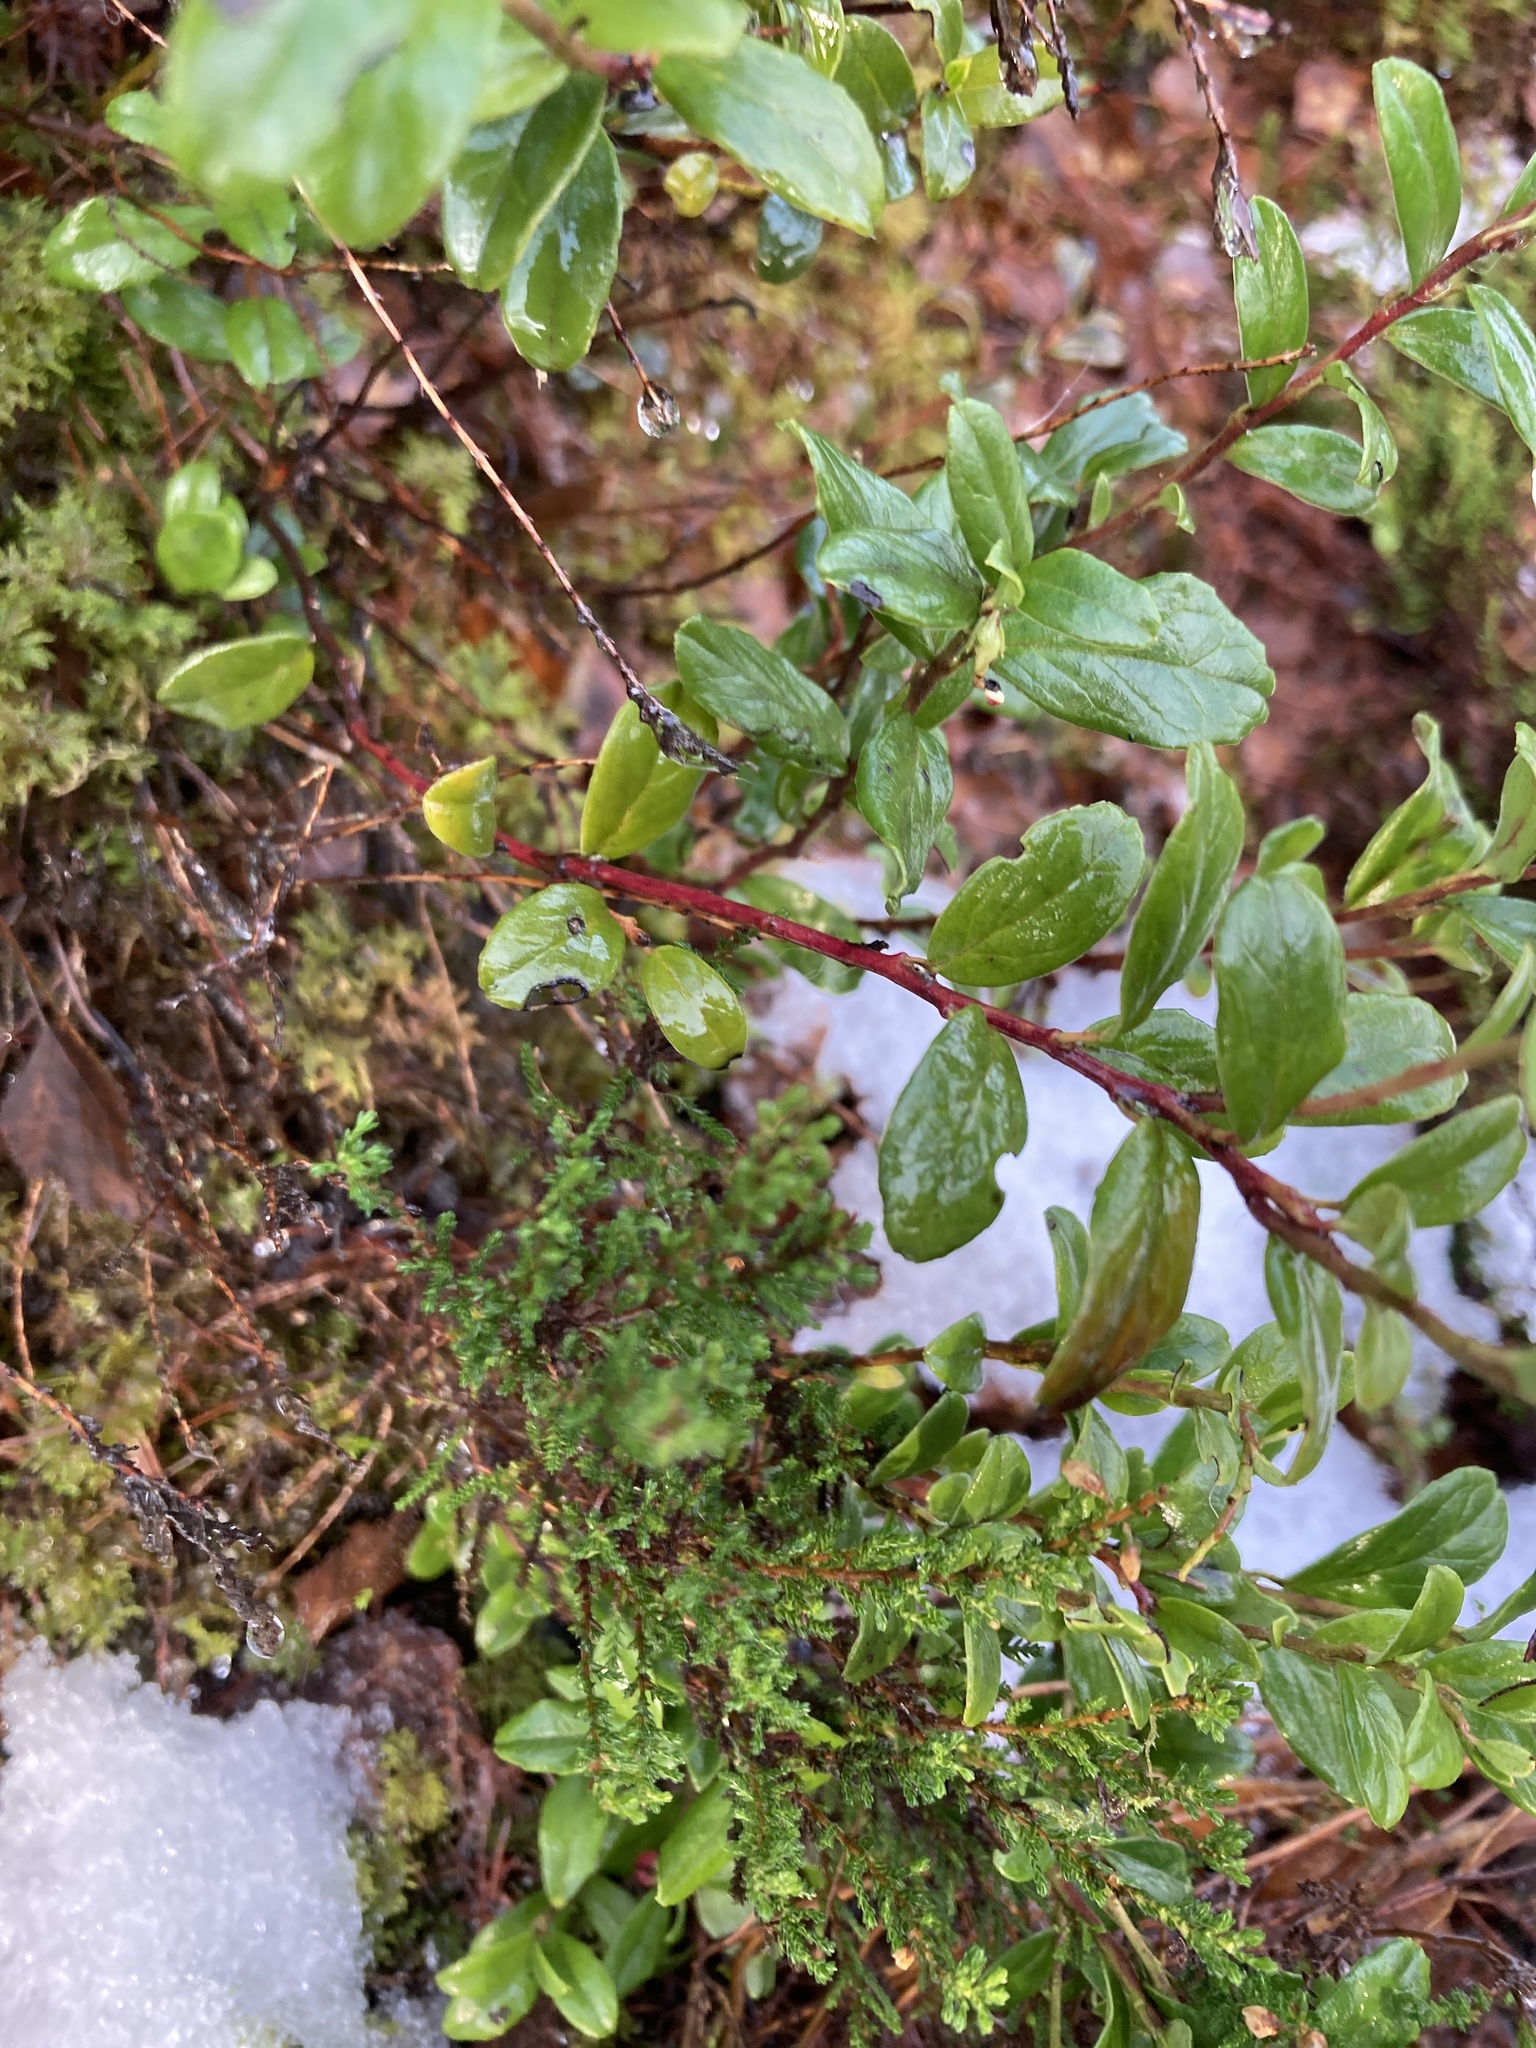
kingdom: Plantae
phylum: Tracheophyta
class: Magnoliopsida
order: Ericales
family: Ericaceae
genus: Vaccinium
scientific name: Vaccinium vitis-idaea
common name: Cowberry
